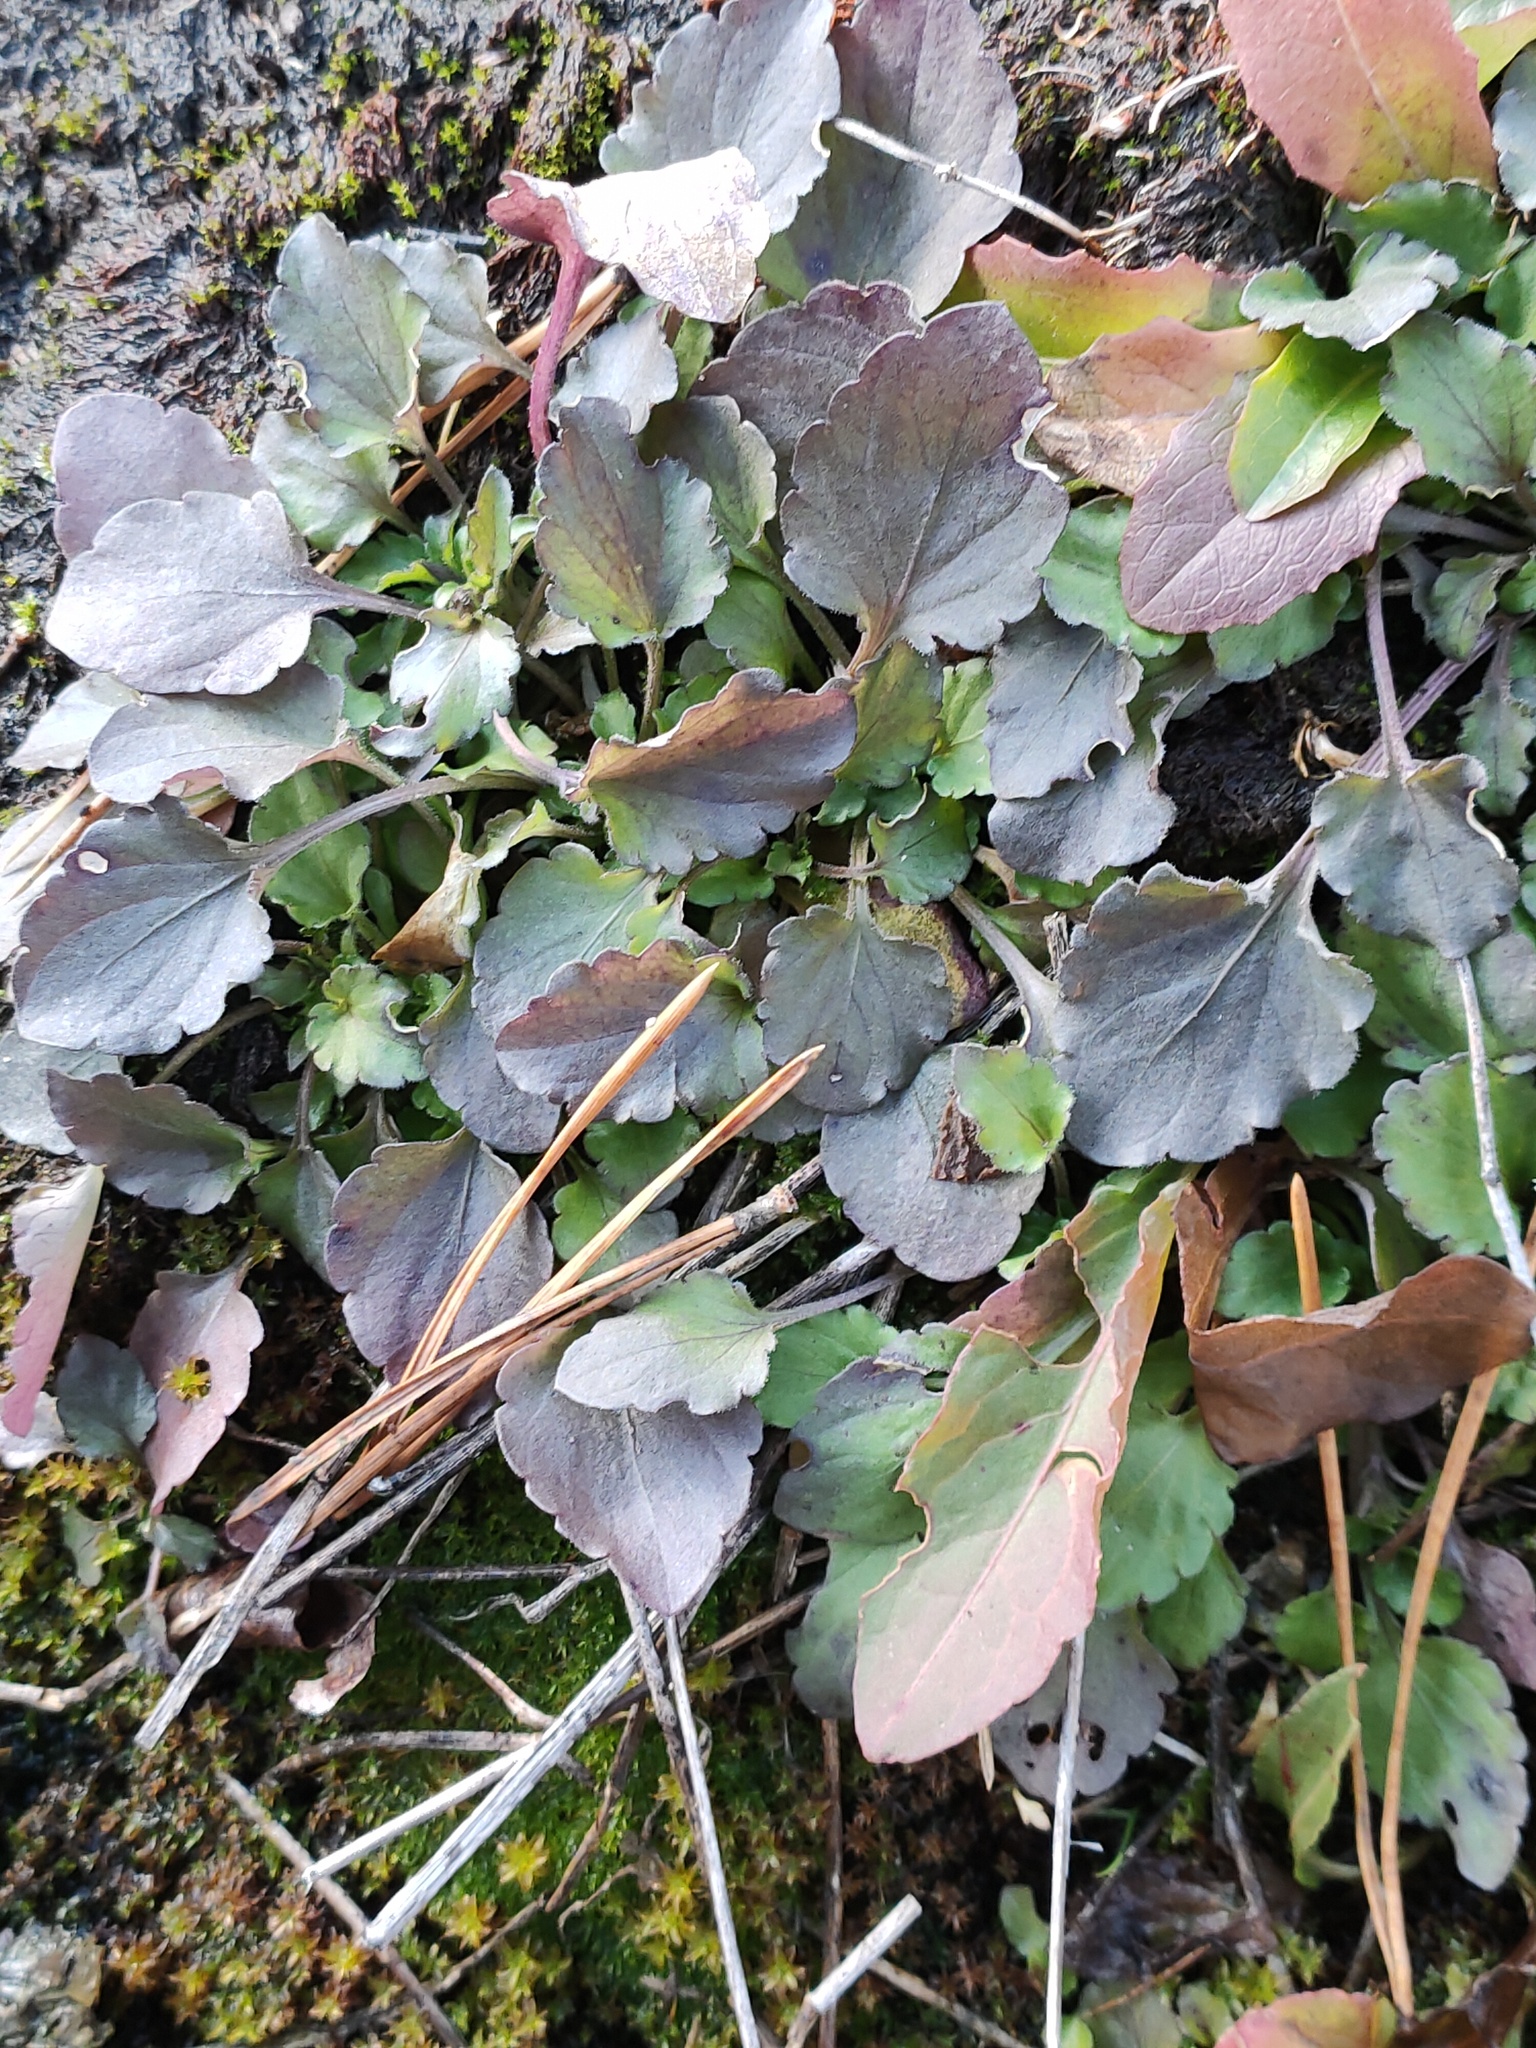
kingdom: Plantae
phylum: Tracheophyta
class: Magnoliopsida
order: Malpighiales
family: Violaceae
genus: Viola
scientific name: Viola arvensis
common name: Field pansy
